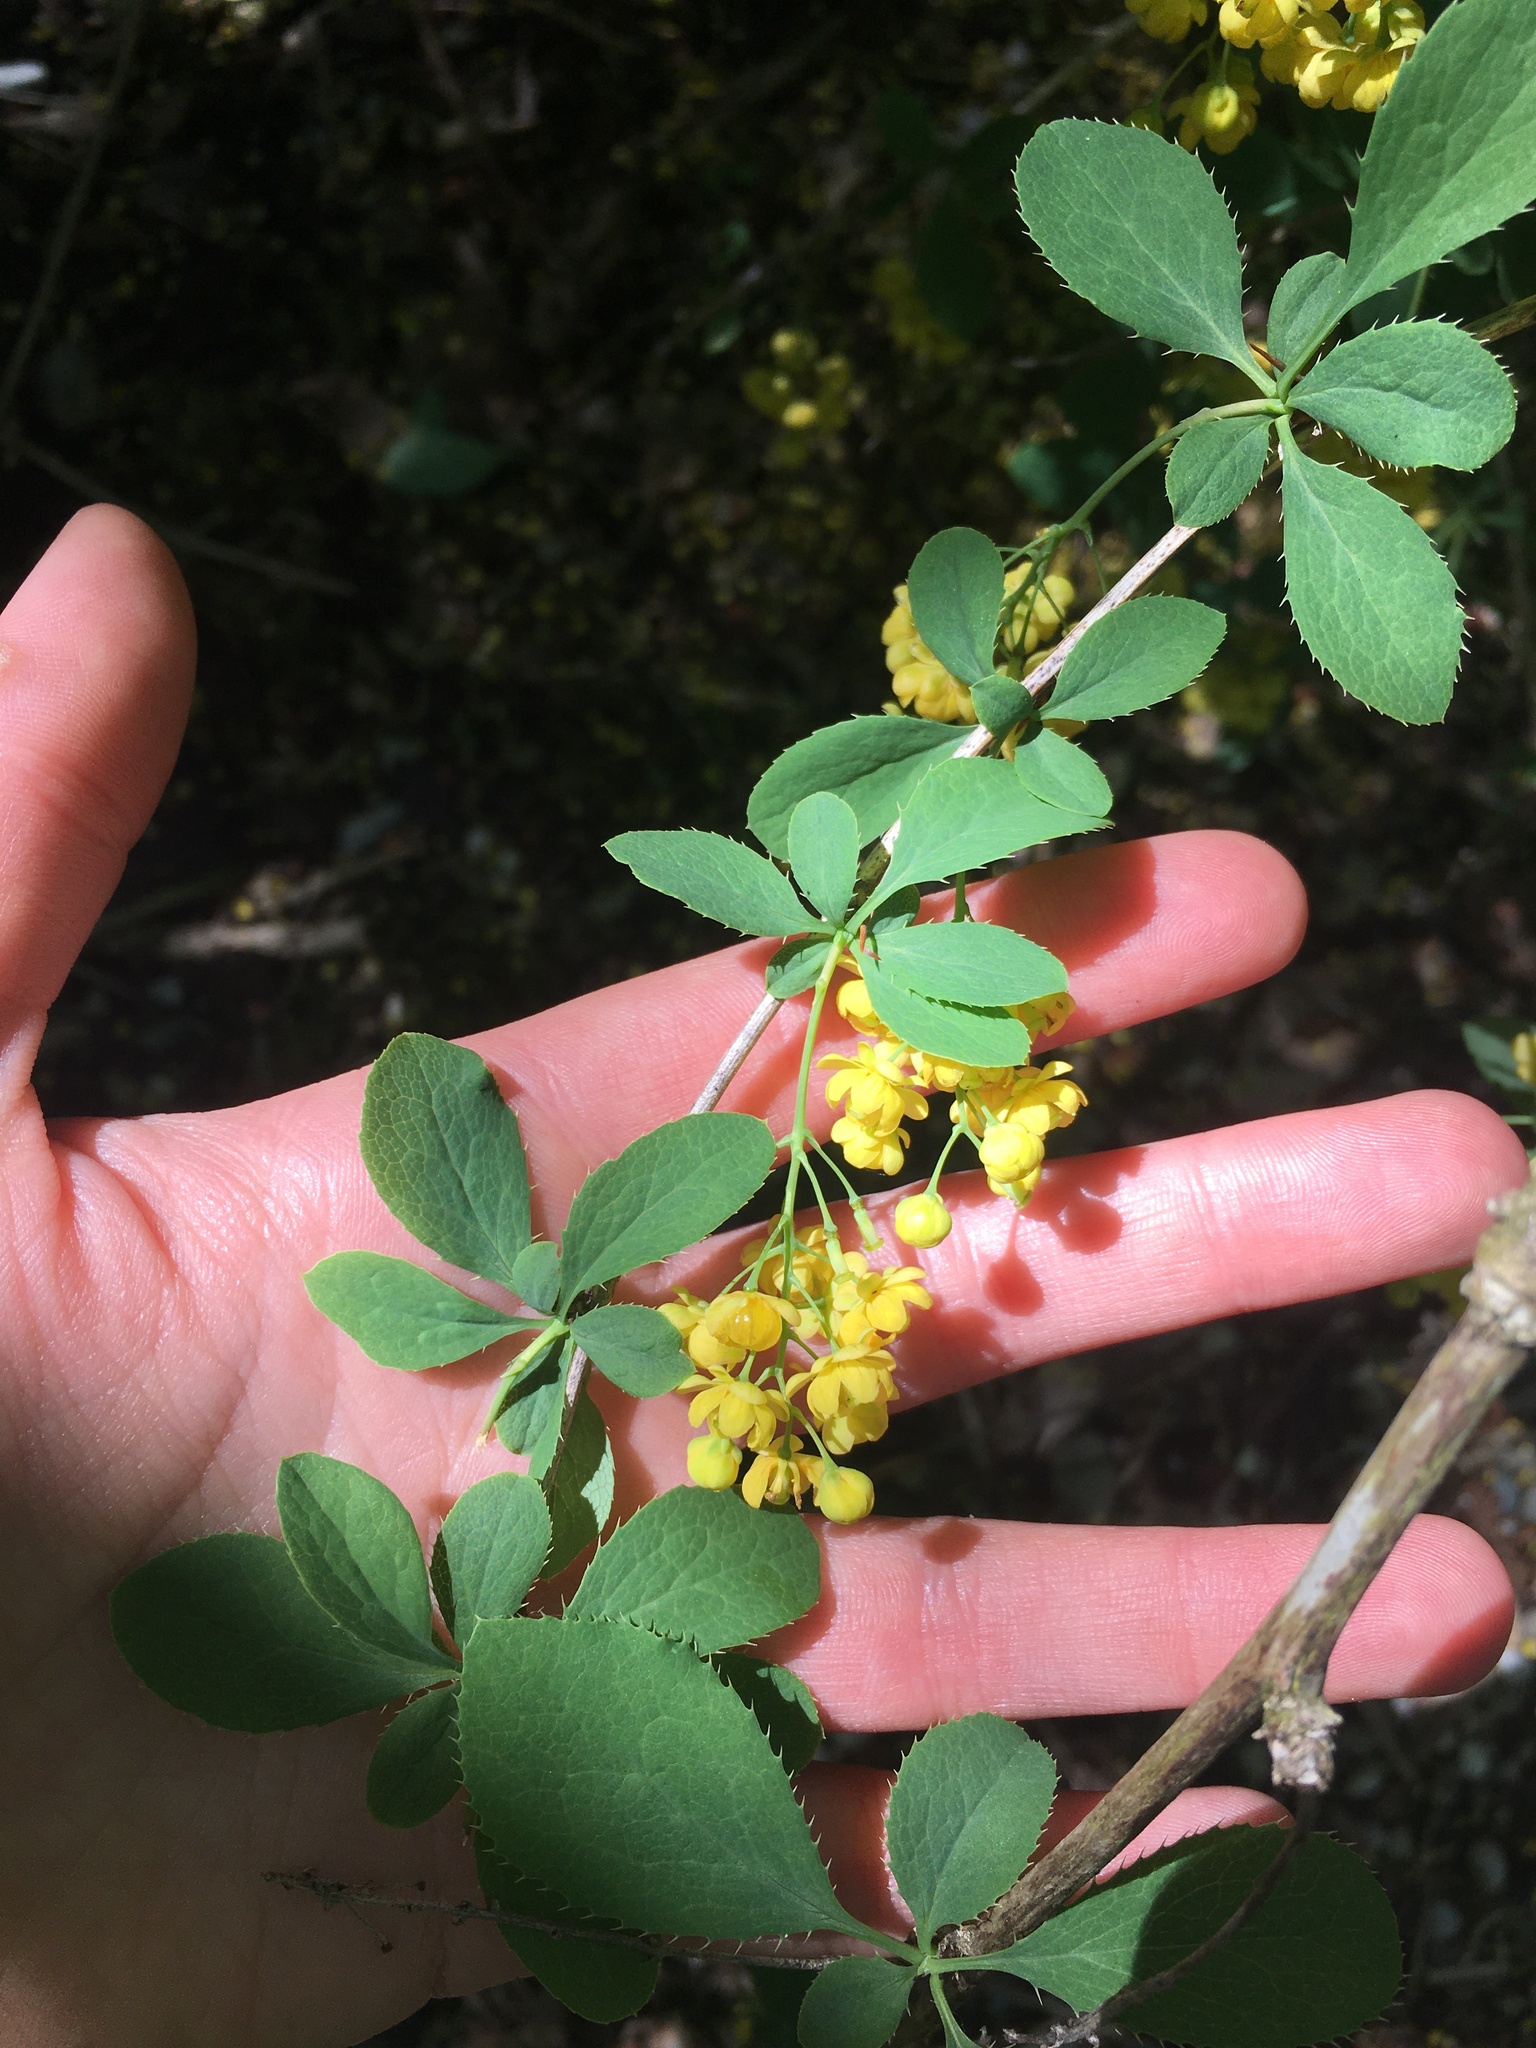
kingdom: Plantae
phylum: Tracheophyta
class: Magnoliopsida
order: Ranunculales
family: Berberidaceae
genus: Berberis
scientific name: Berberis vulgaris
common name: Barberry
